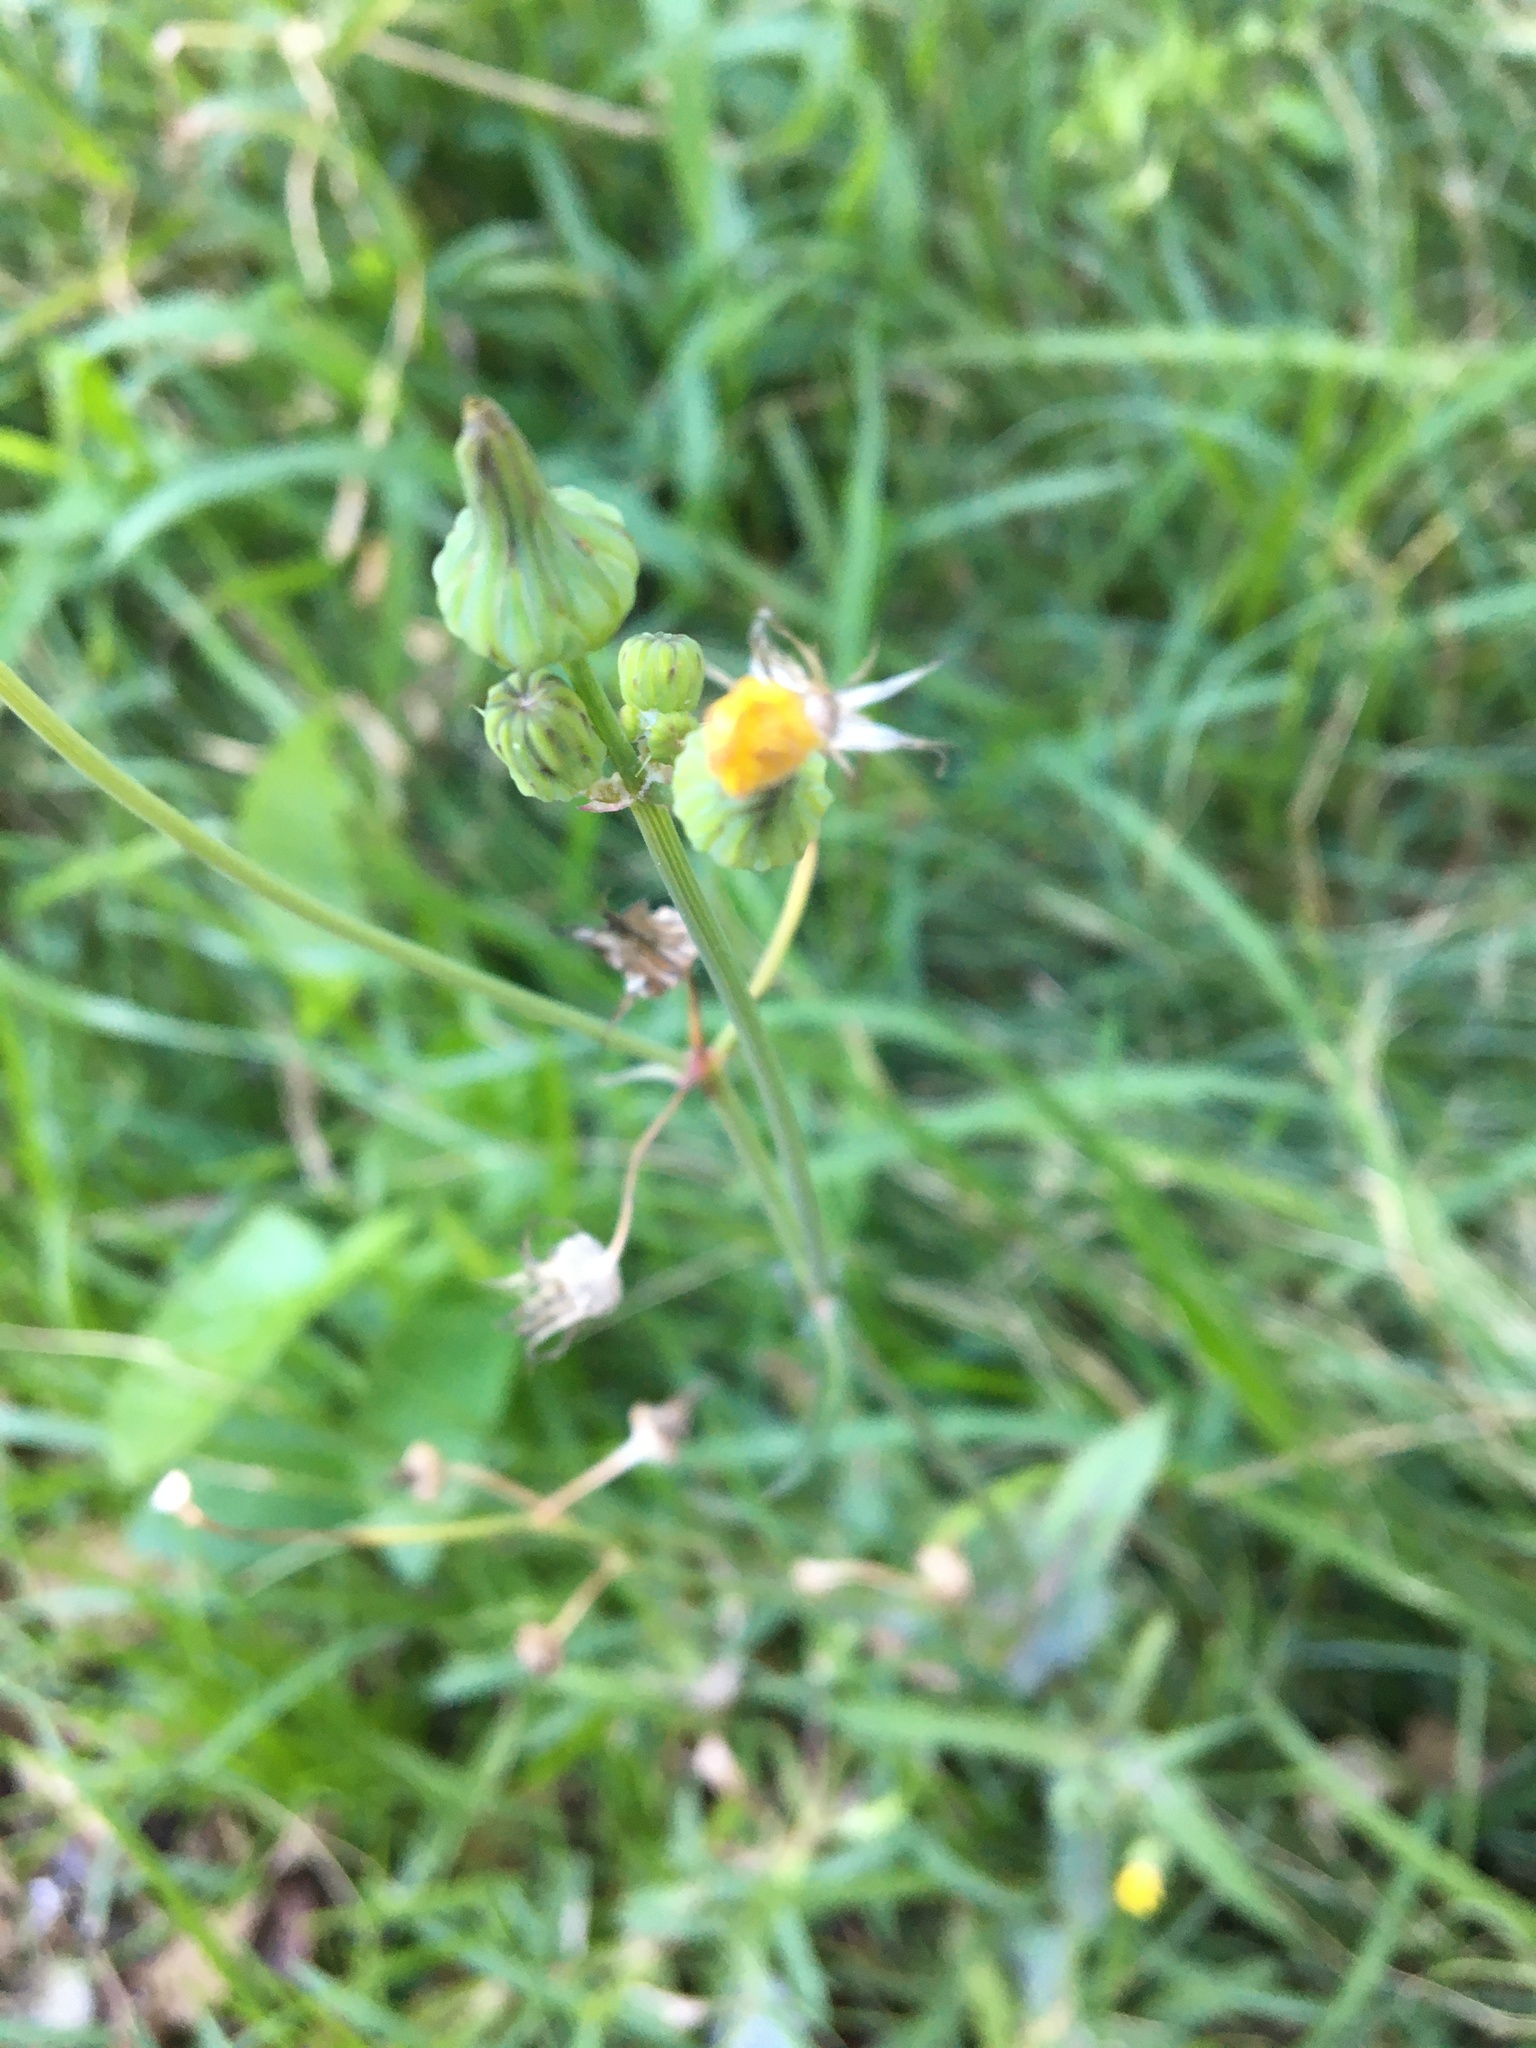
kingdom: Plantae
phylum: Tracheophyta
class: Magnoliopsida
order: Asterales
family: Asteraceae
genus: Sonchus
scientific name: Sonchus asper
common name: Prickly sow-thistle
